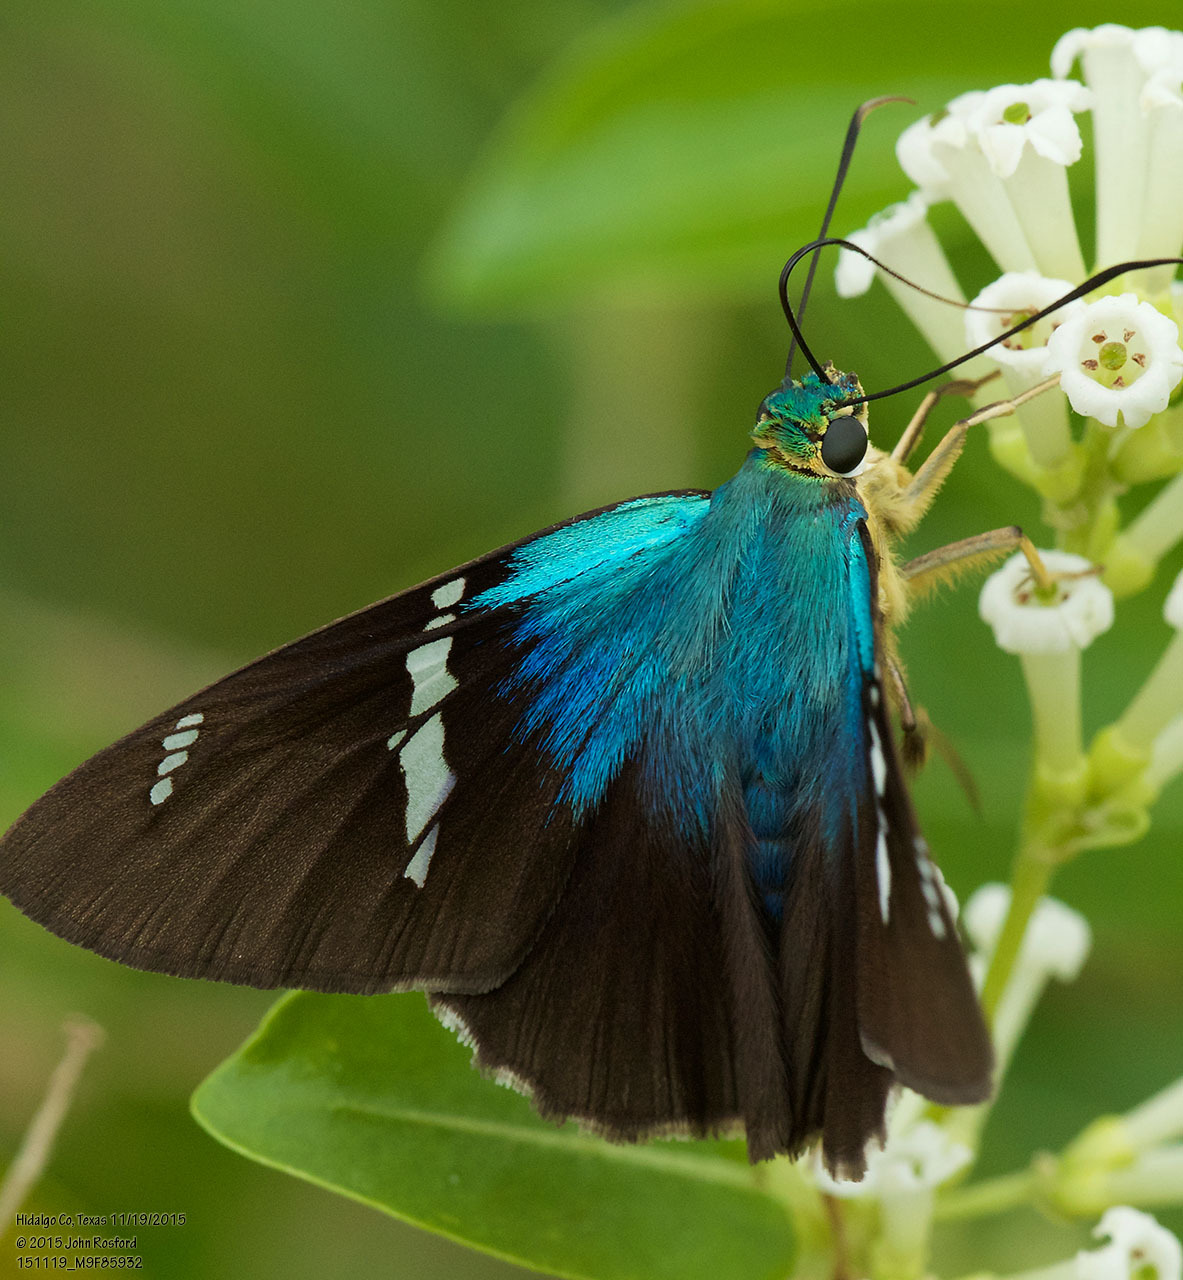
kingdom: Animalia
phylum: Arthropoda
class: Insecta
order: Lepidoptera
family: Hesperiidae
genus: Astraptes
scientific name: Astraptes fulgerator
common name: Two-barred flasher
